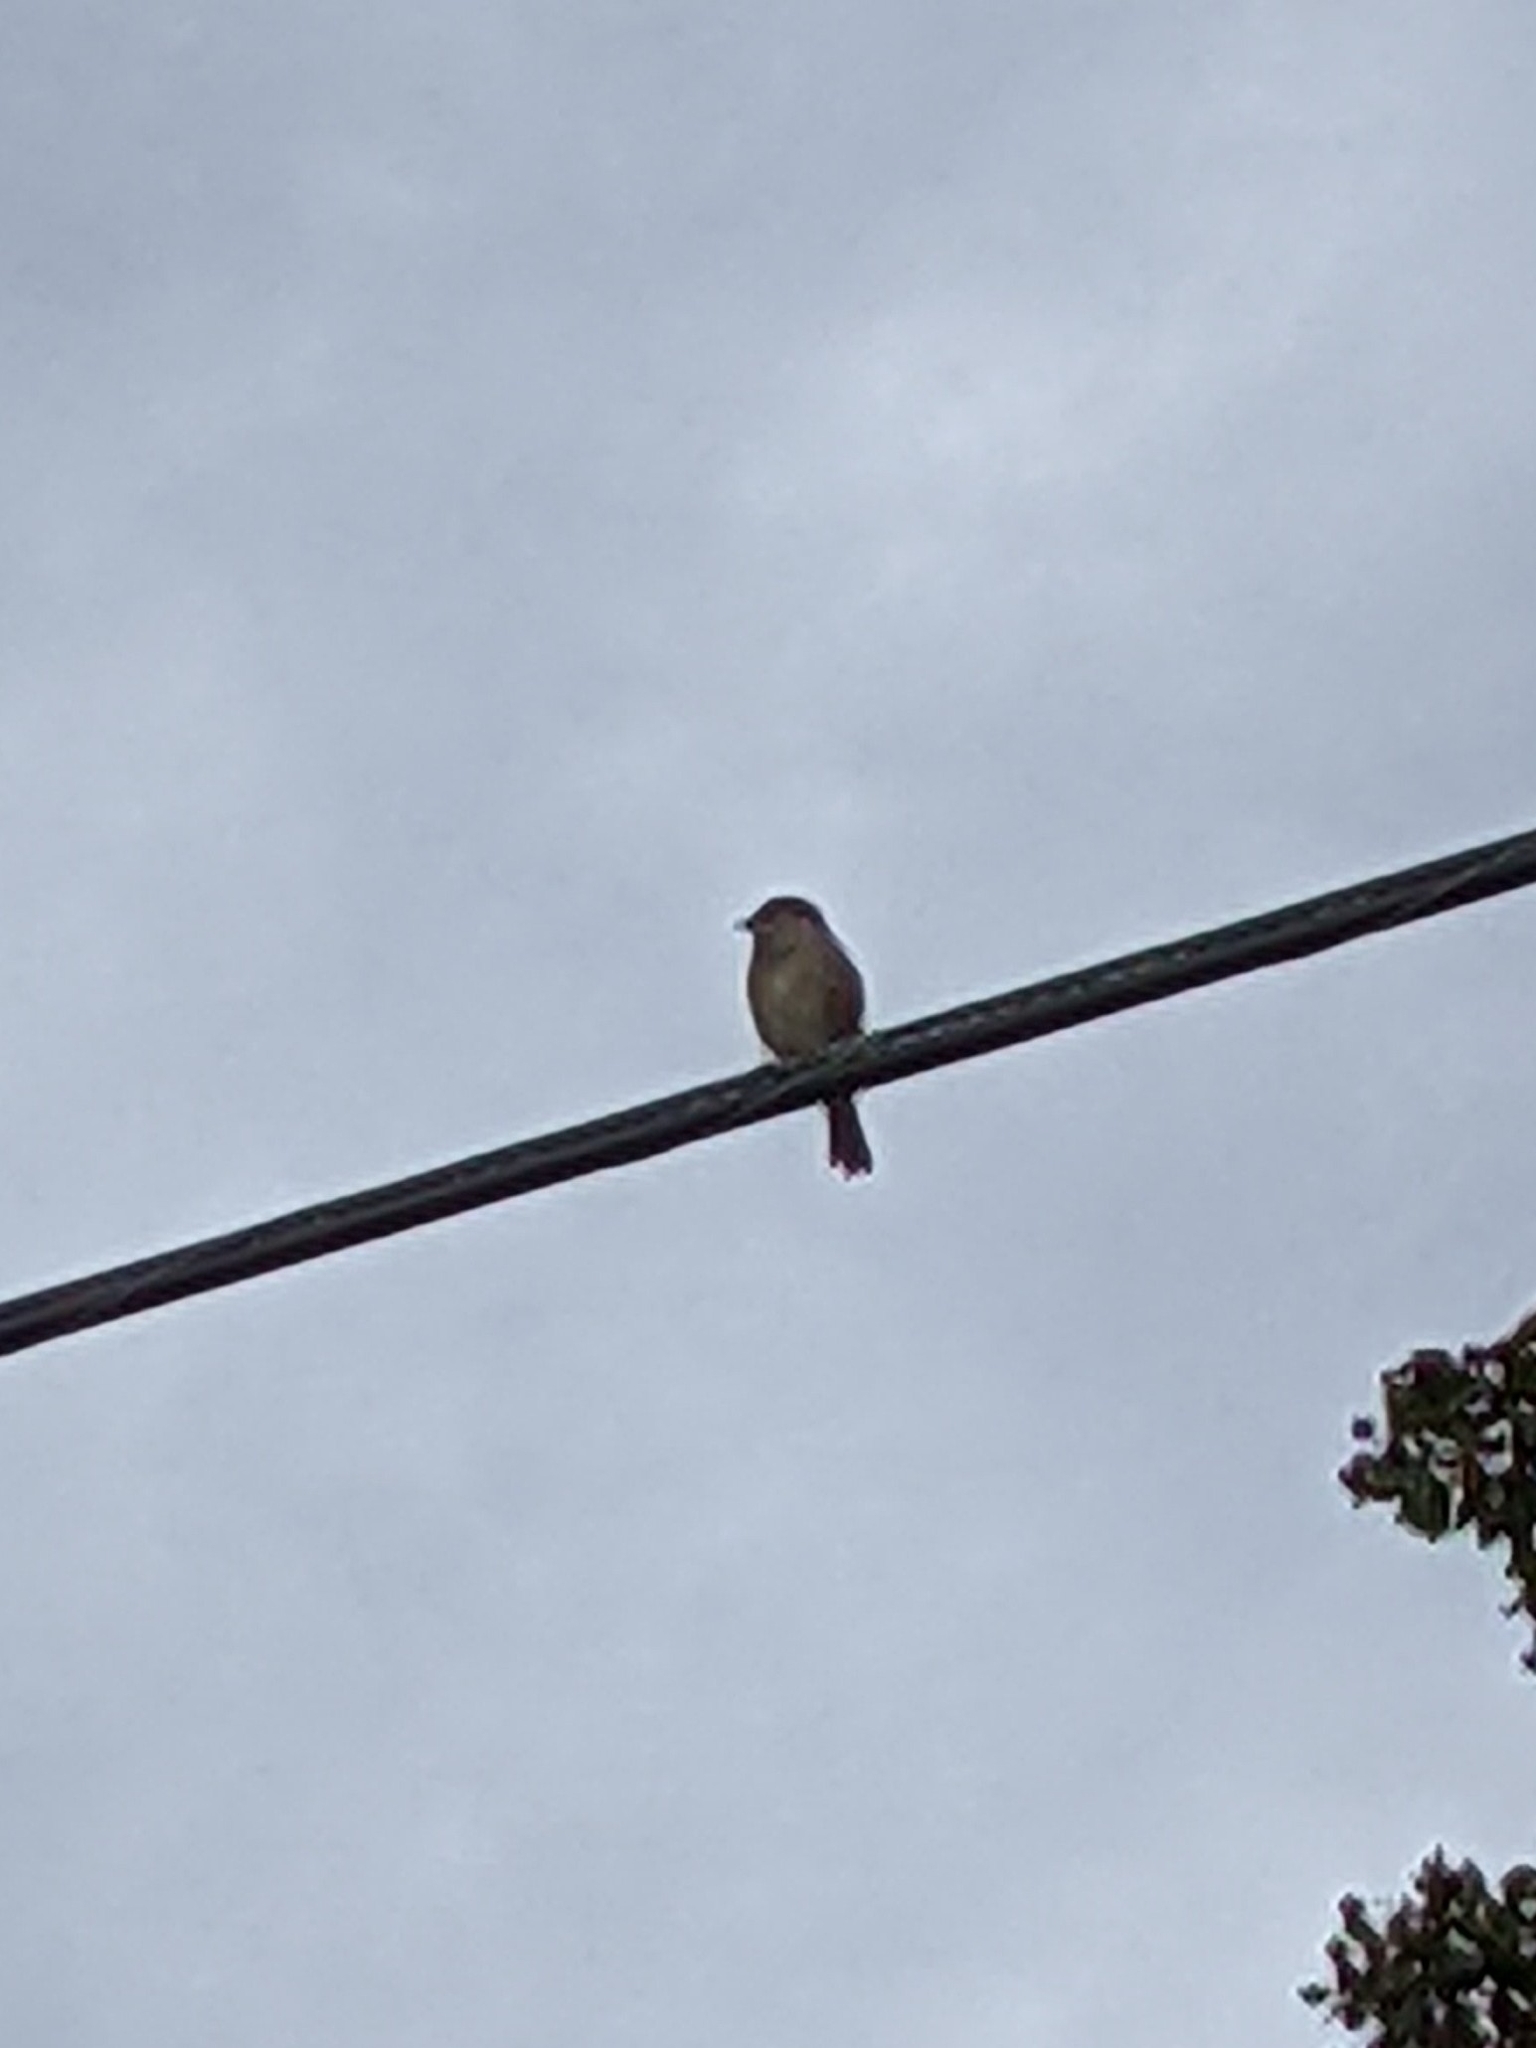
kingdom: Animalia
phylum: Chordata
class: Aves
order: Passeriformes
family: Passeridae
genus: Passer
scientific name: Passer domesticus
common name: House sparrow
